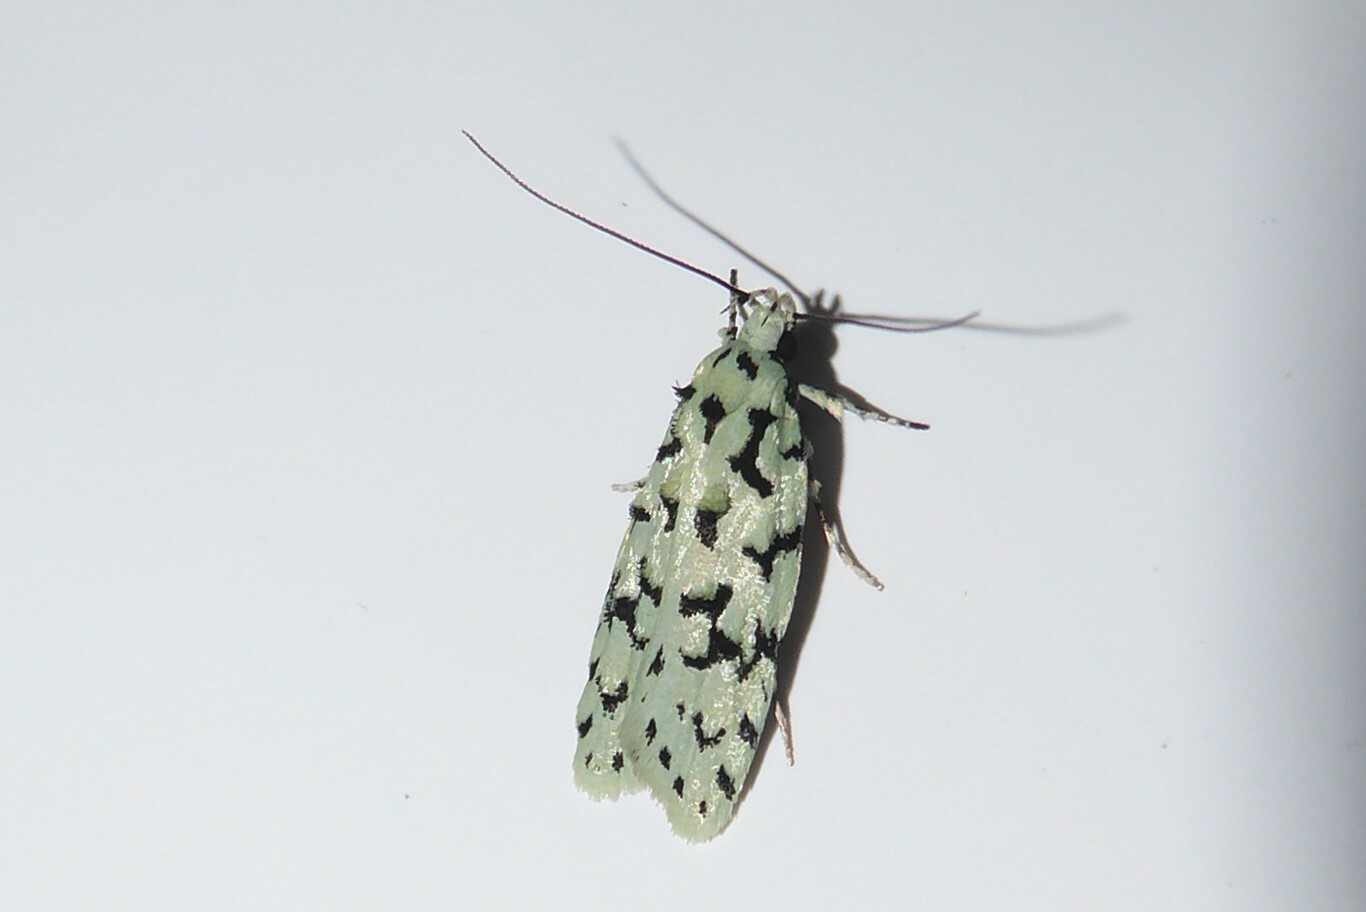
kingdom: Animalia
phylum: Arthropoda
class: Insecta
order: Lepidoptera
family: Oecophoridae
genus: Izatha
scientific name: Izatha huttoni
